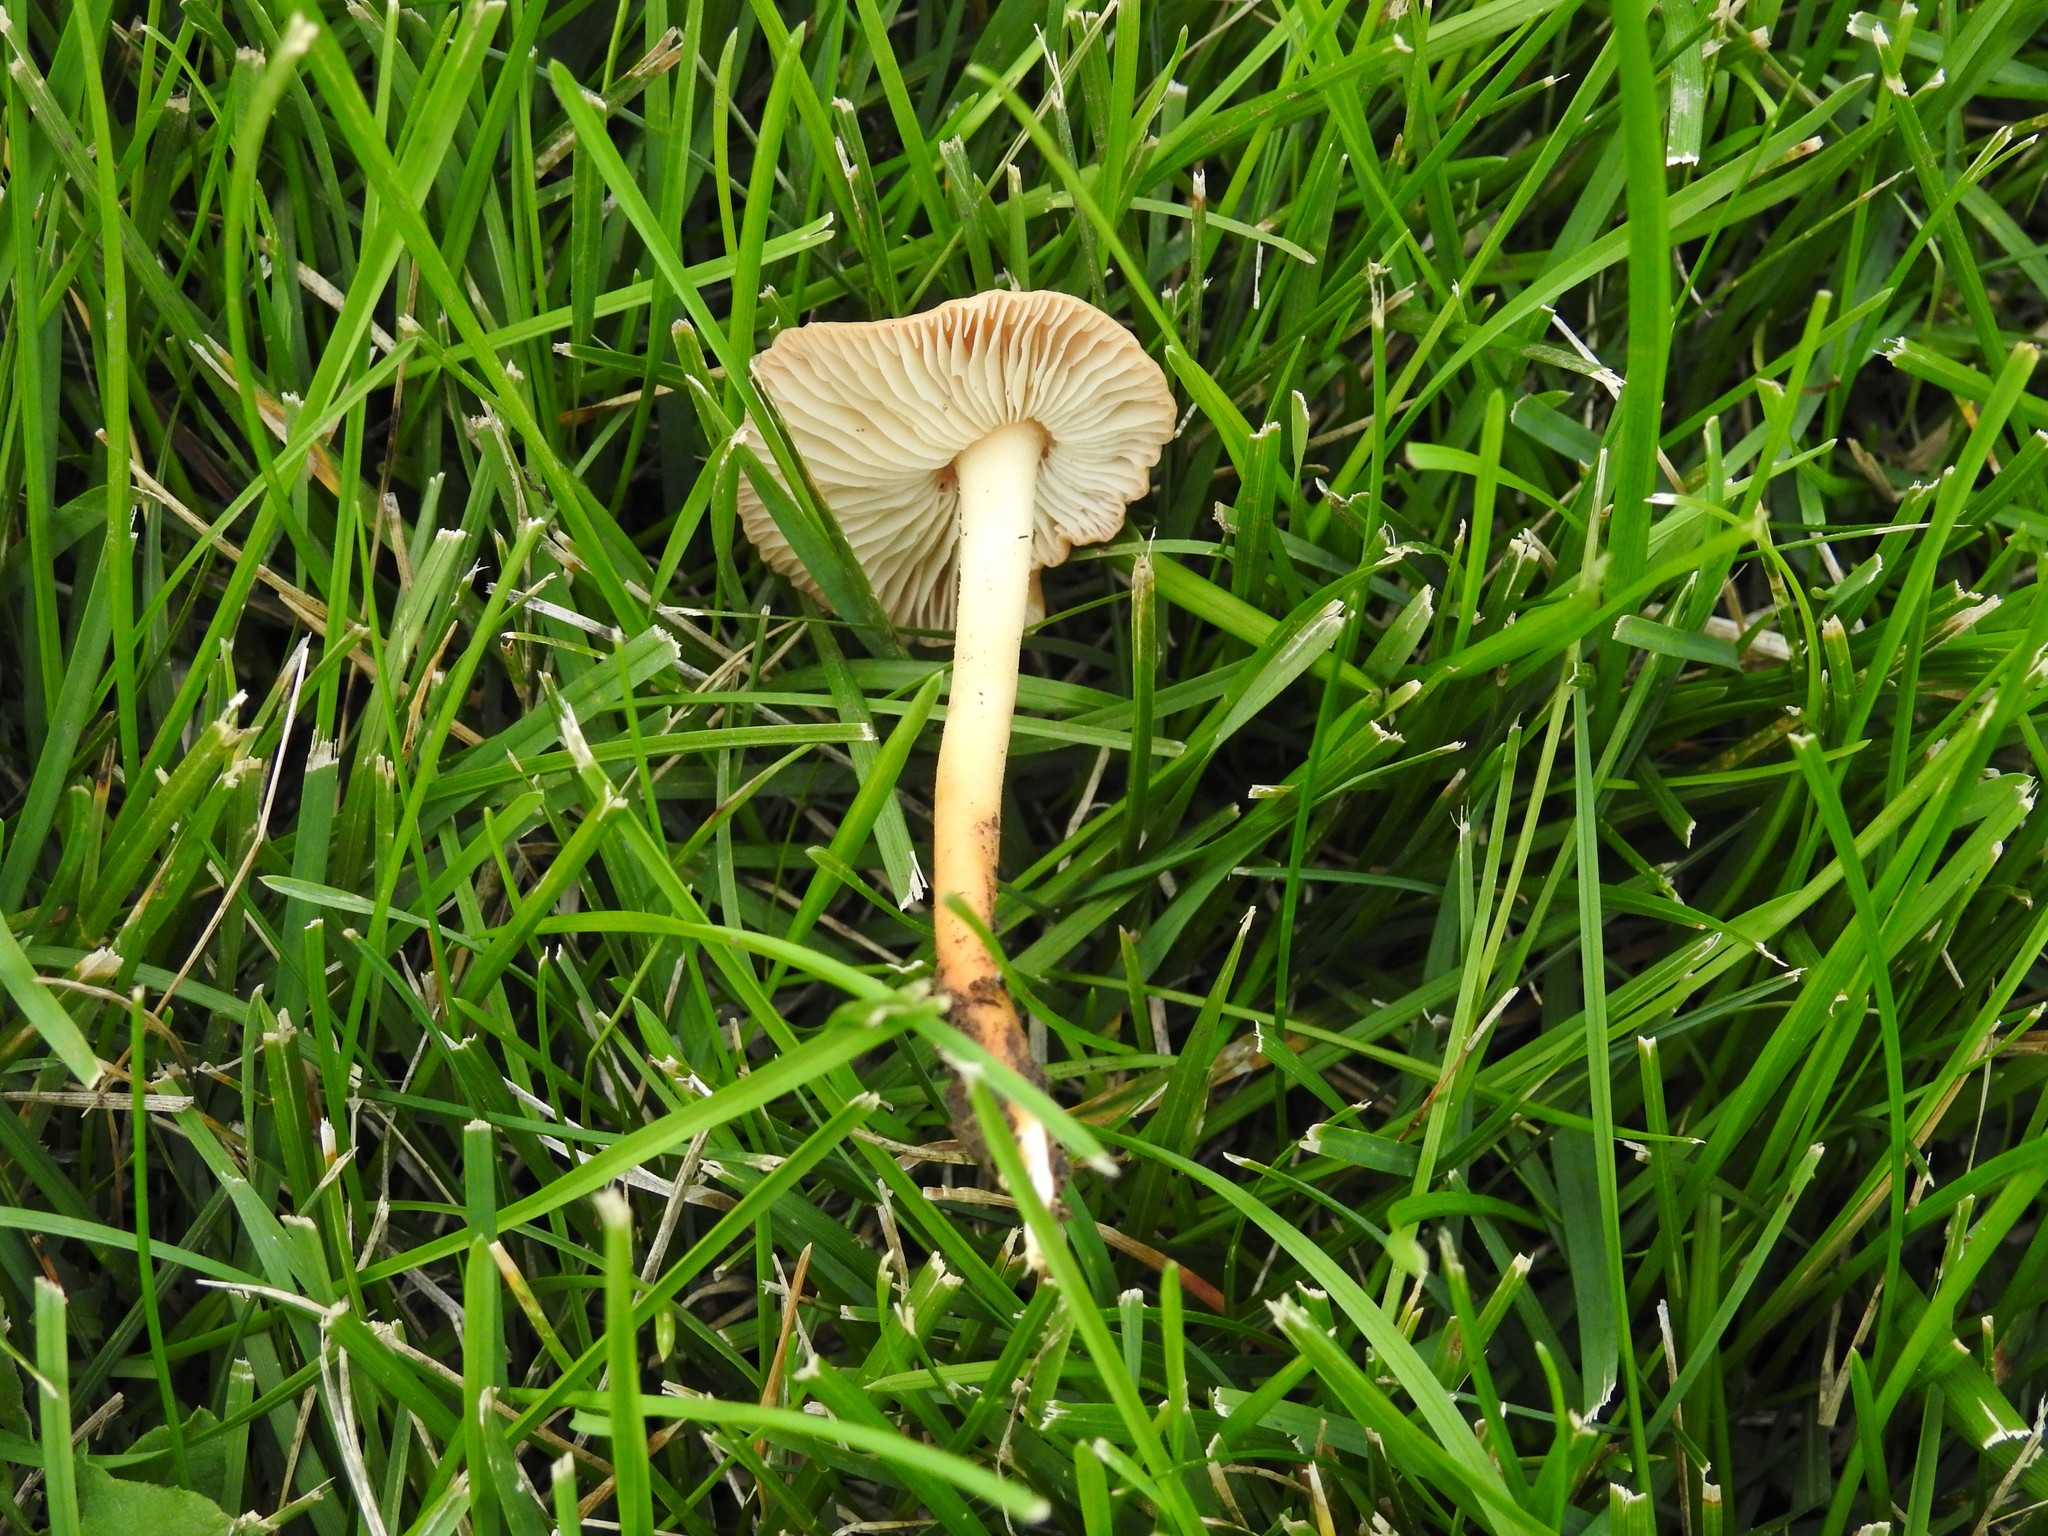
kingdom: Fungi
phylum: Basidiomycota
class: Agaricomycetes
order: Agaricales
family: Marasmiaceae
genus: Marasmius
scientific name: Marasmius oreades
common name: Fairy ring champignon
